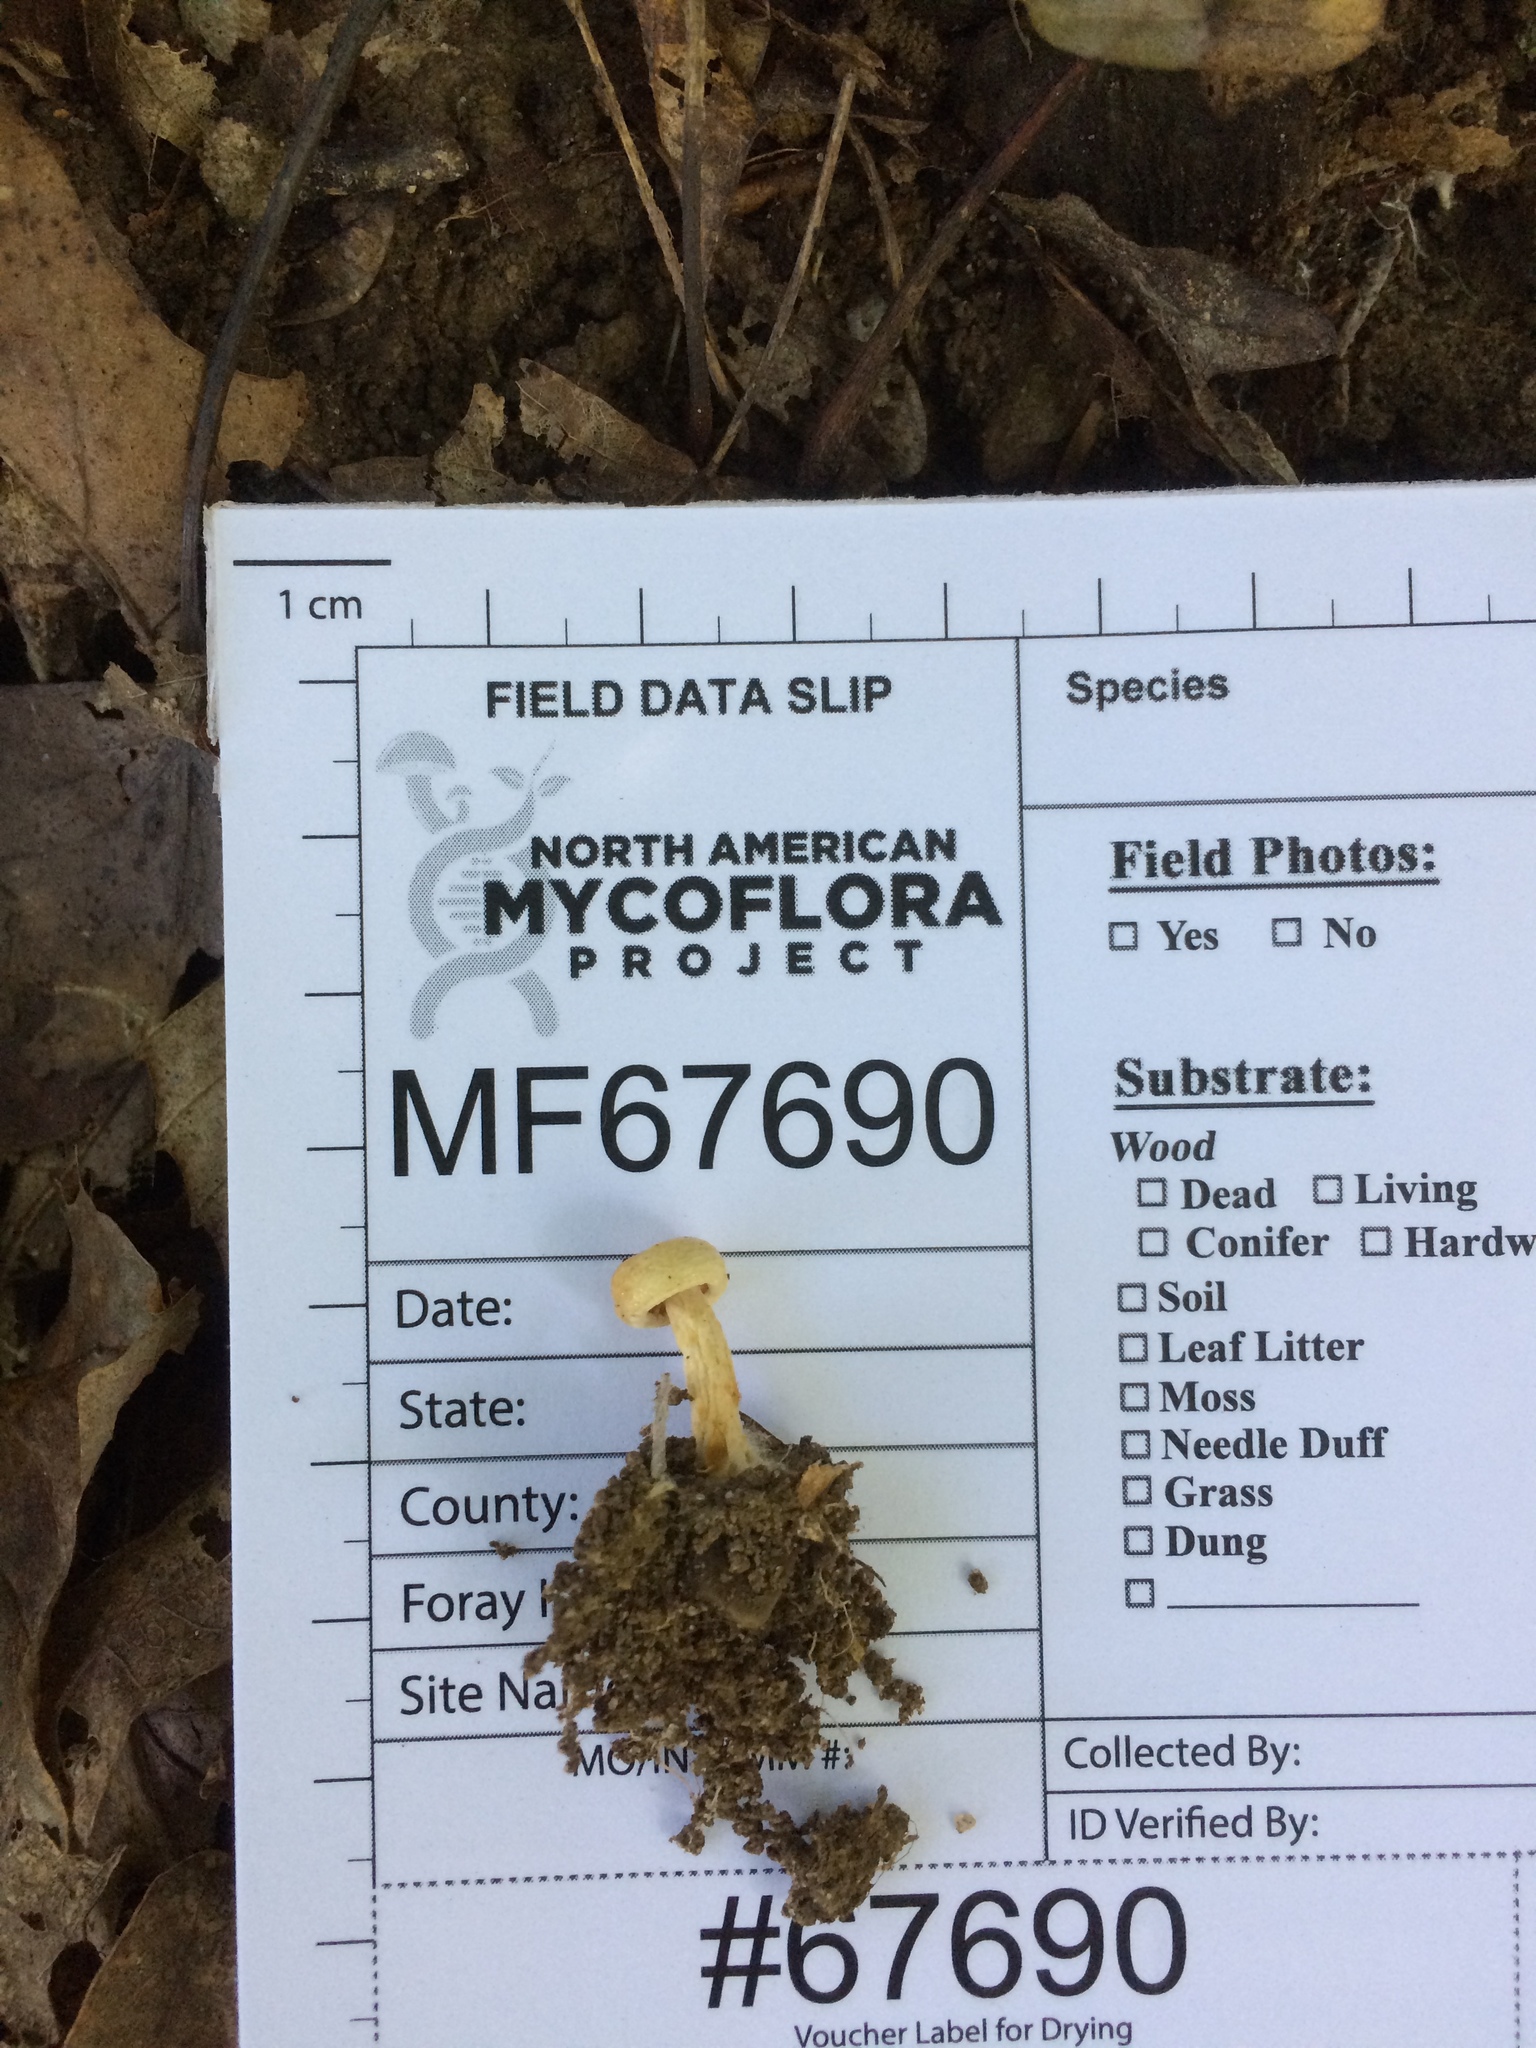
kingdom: Fungi
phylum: Basidiomycota
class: Agaricomycetes
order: Russulales
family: Russulaceae
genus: Lactarius
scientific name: Lactarius yazooensis
